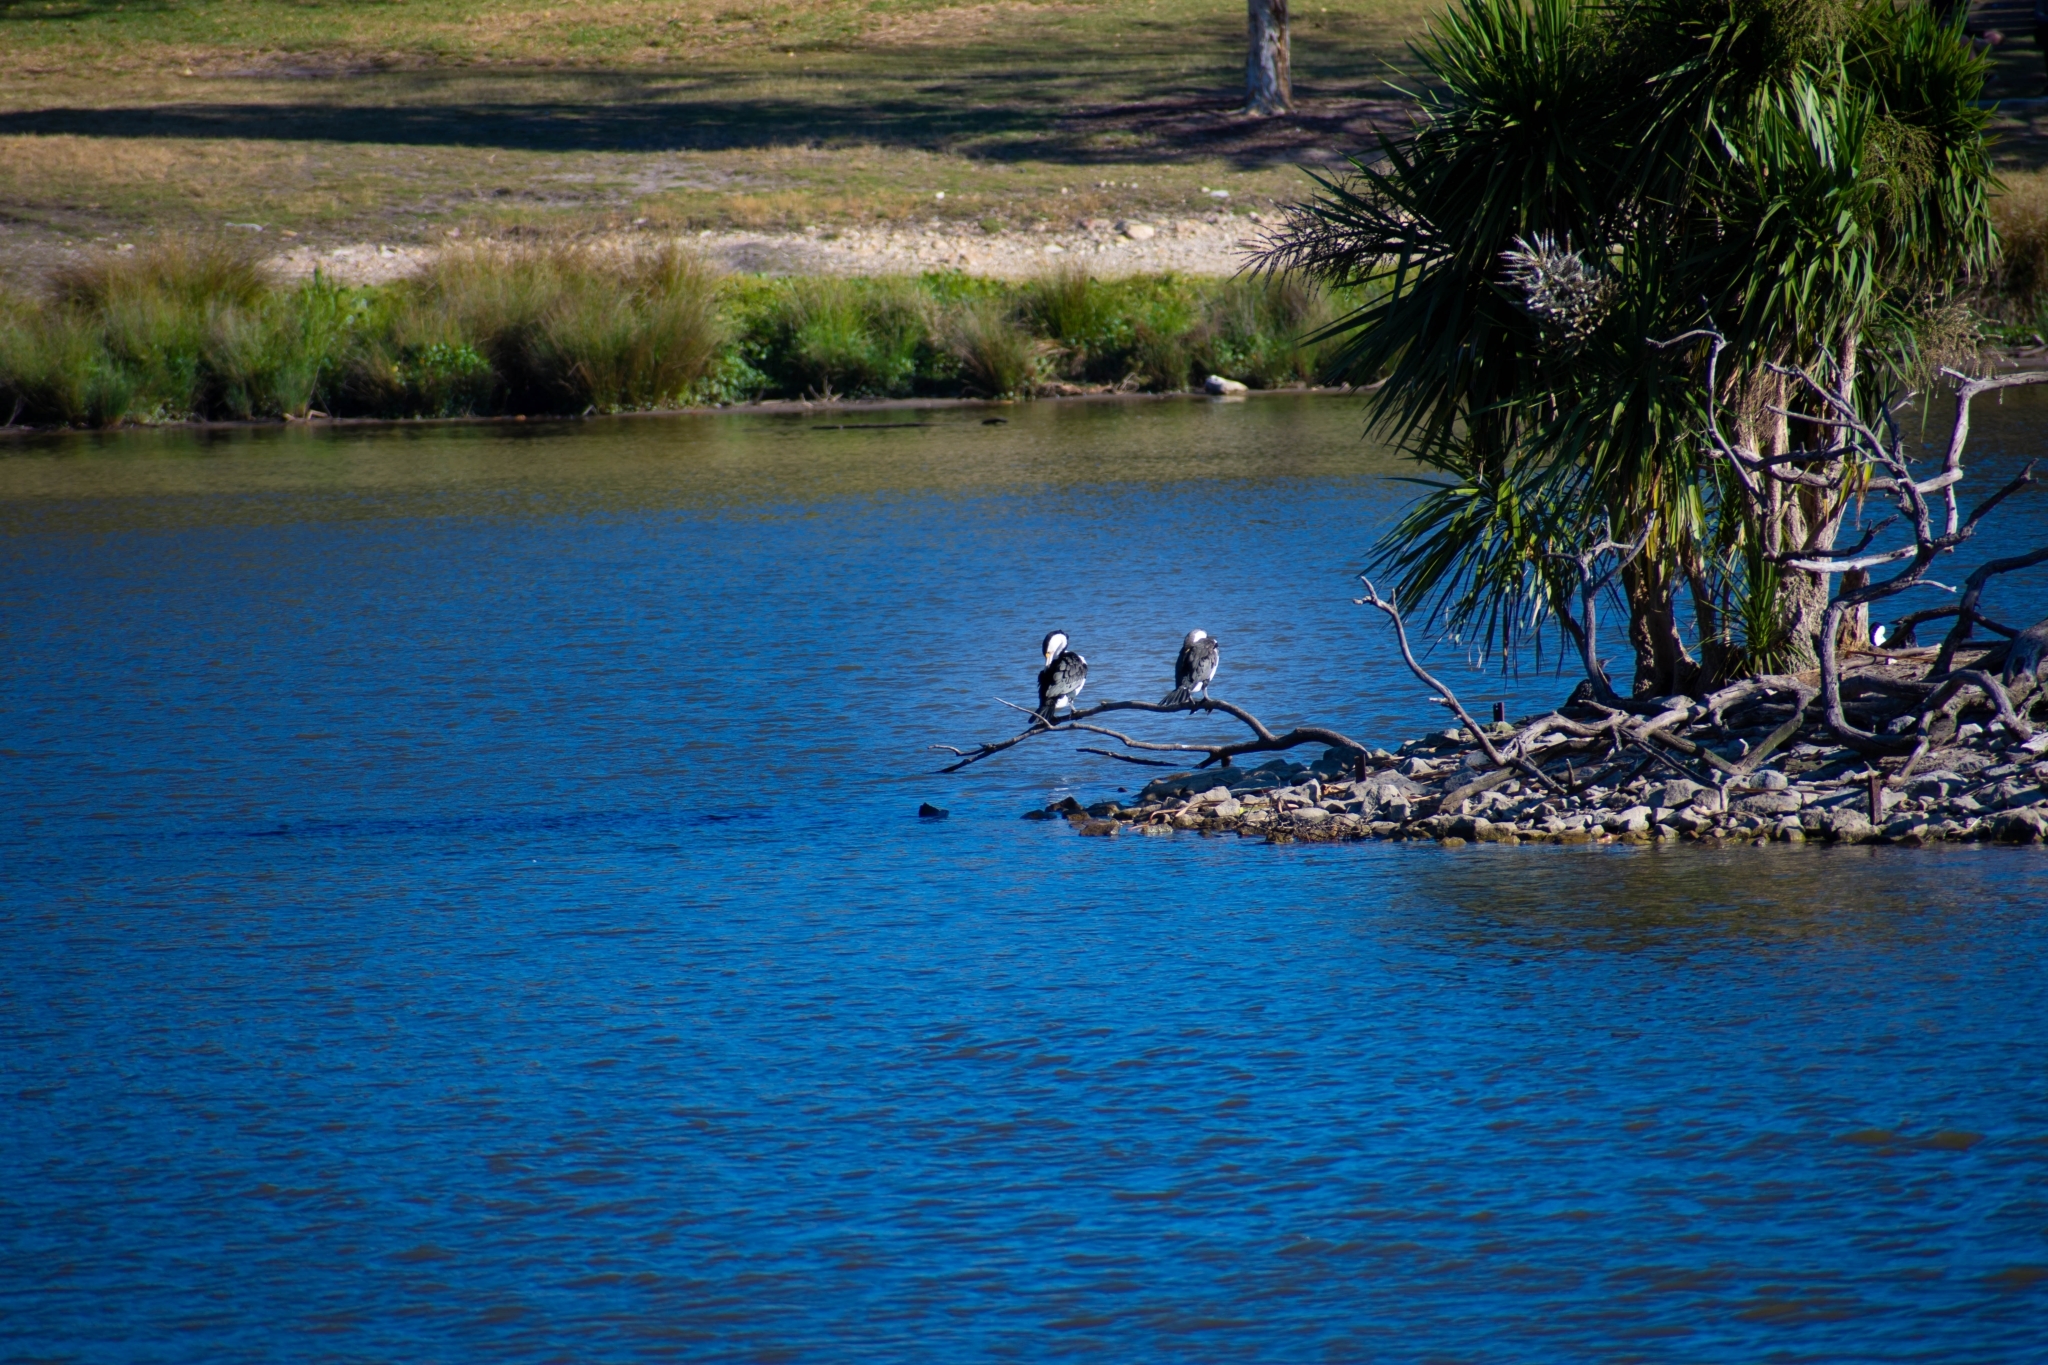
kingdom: Animalia
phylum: Chordata
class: Aves
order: Suliformes
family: Phalacrocoracidae
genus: Phalacrocorax
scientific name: Phalacrocorax varius
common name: Pied cormorant
